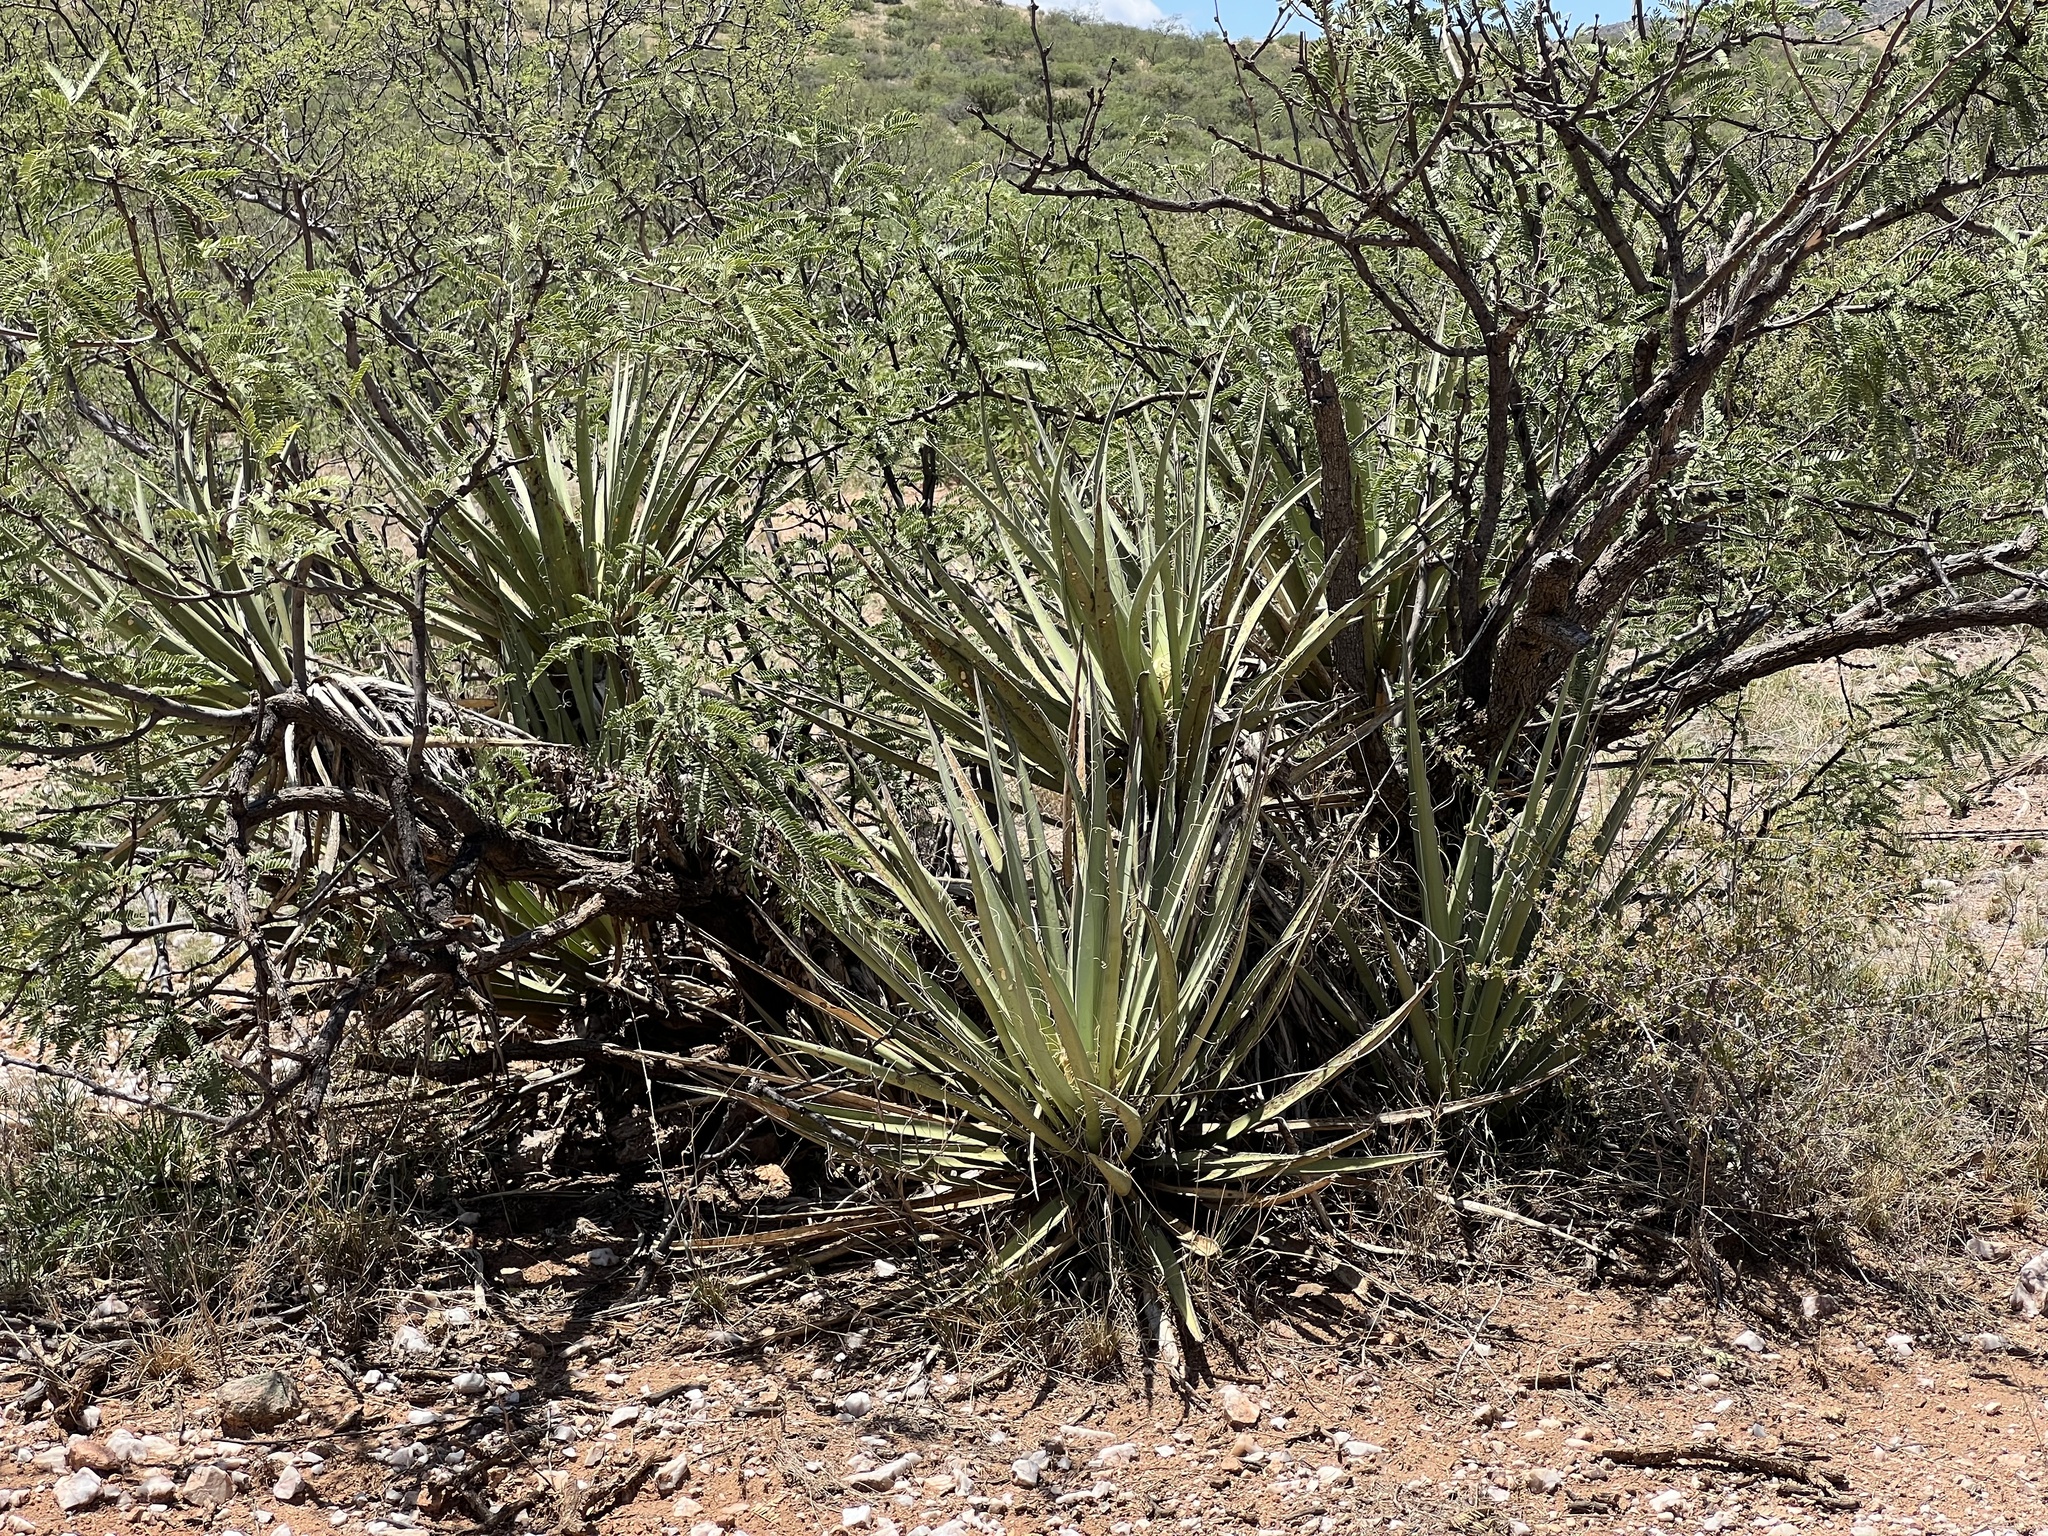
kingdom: Plantae
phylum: Tracheophyta
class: Liliopsida
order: Asparagales
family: Asparagaceae
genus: Yucca
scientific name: Yucca baccata
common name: Banana yucca
